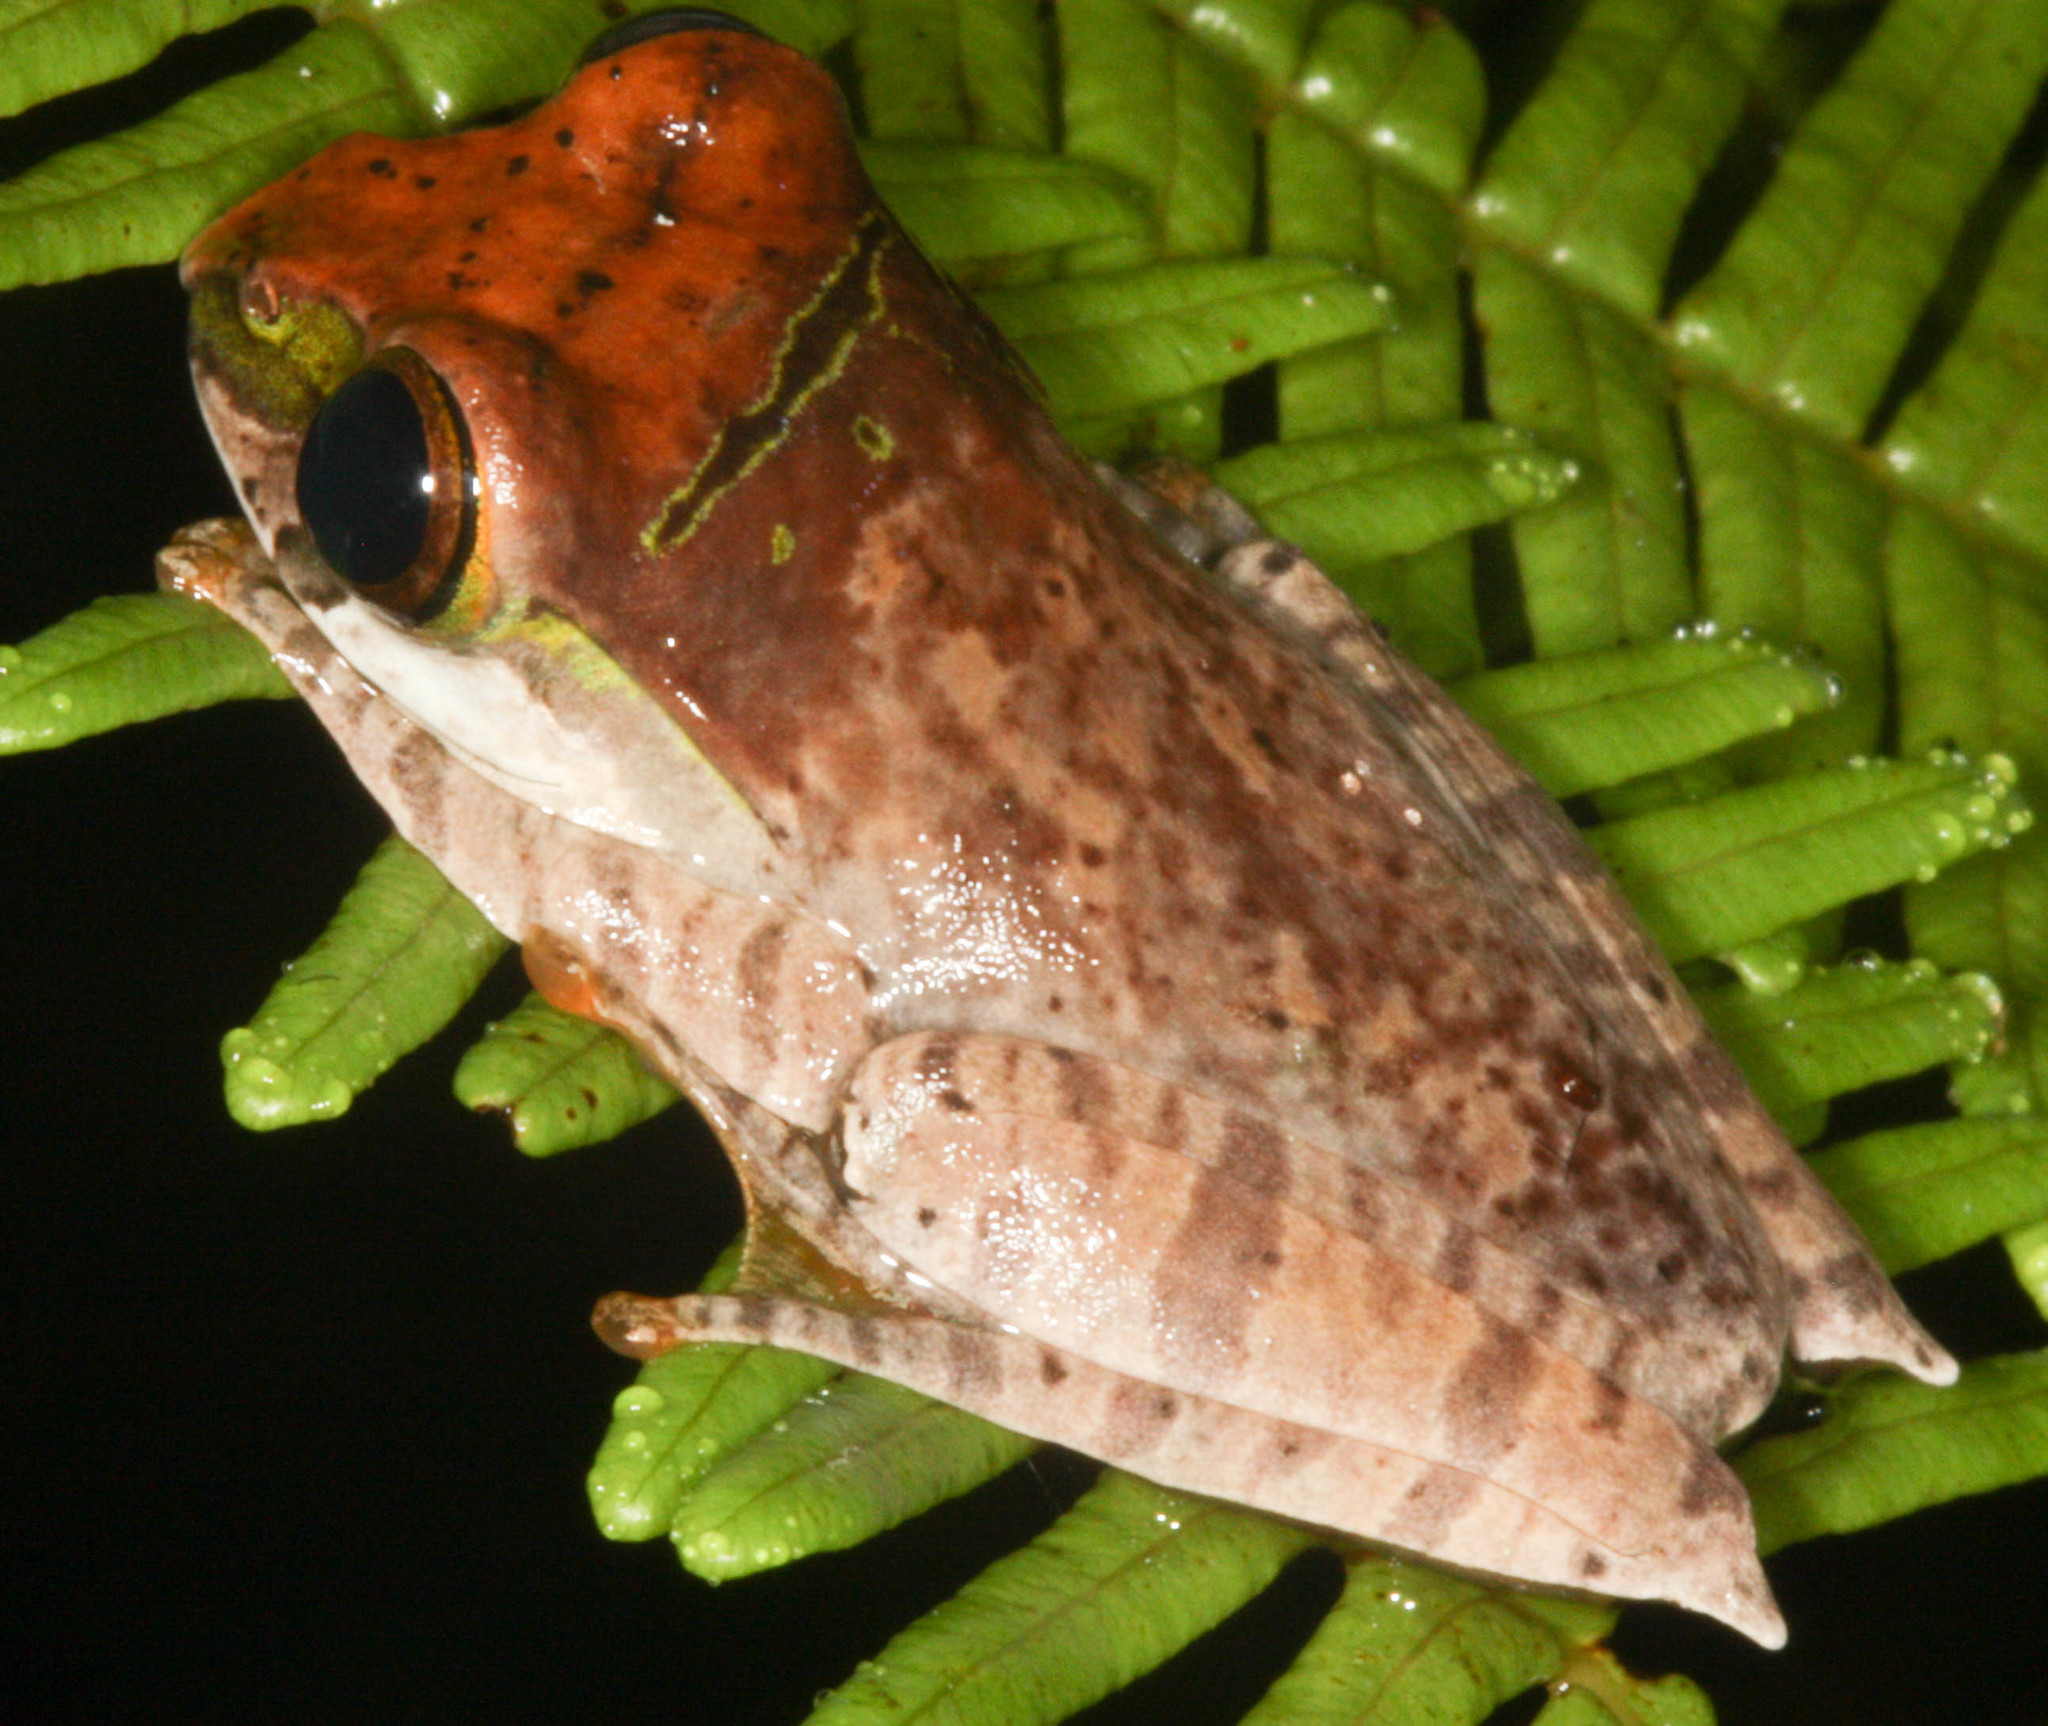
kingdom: Animalia
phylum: Chordata
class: Amphibia
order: Anura
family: Mantellidae
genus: Boophis
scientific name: Boophis madagascariensis
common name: Madagascar bright-eyed frog
